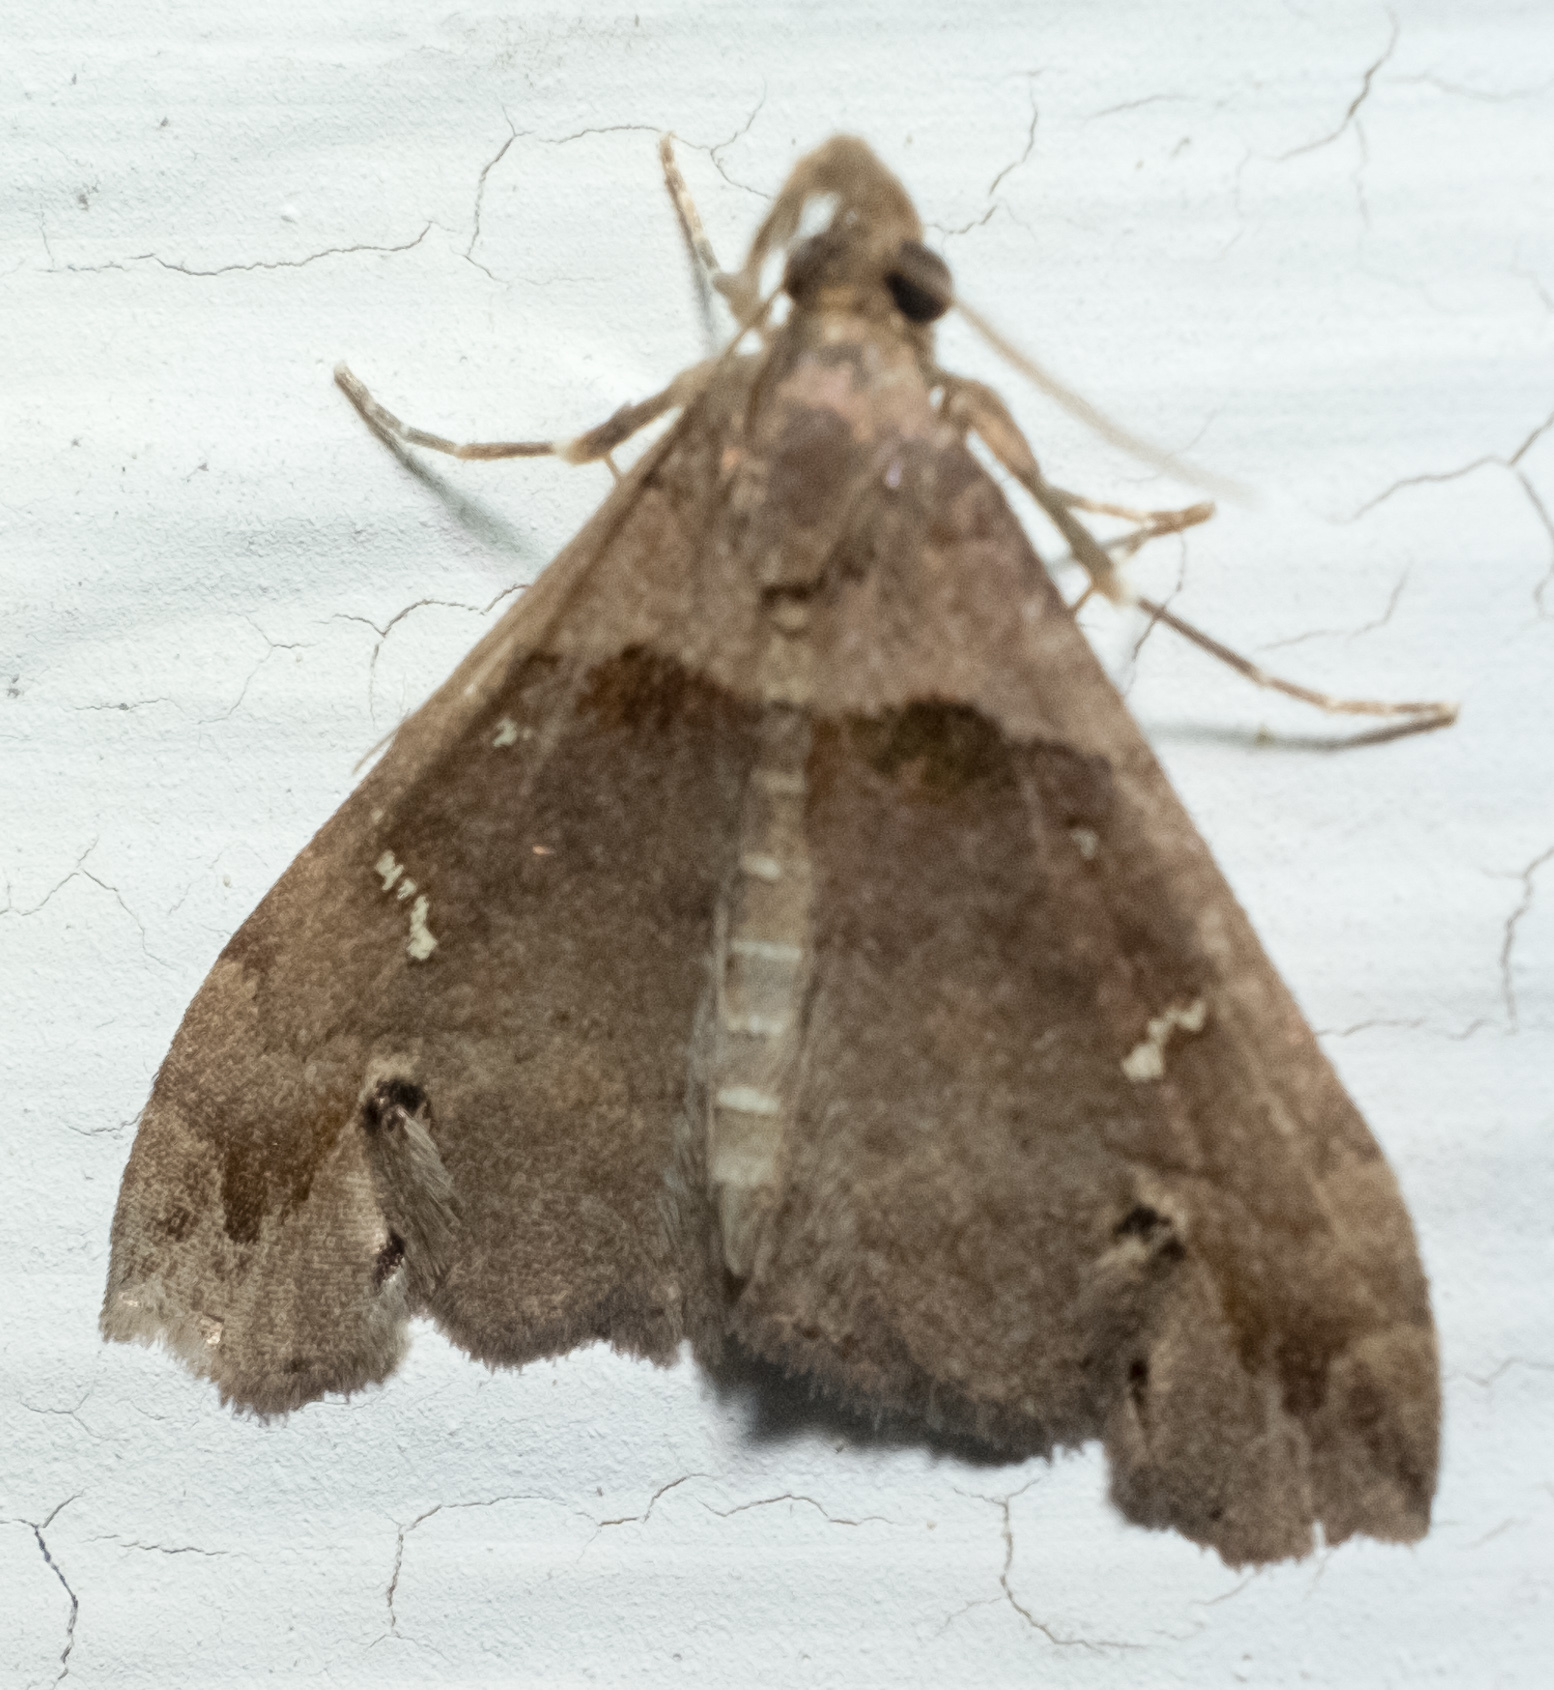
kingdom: Animalia
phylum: Arthropoda
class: Insecta
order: Lepidoptera
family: Erebidae
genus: Lascoria
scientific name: Lascoria ambigualis
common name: Ambiguous moth
